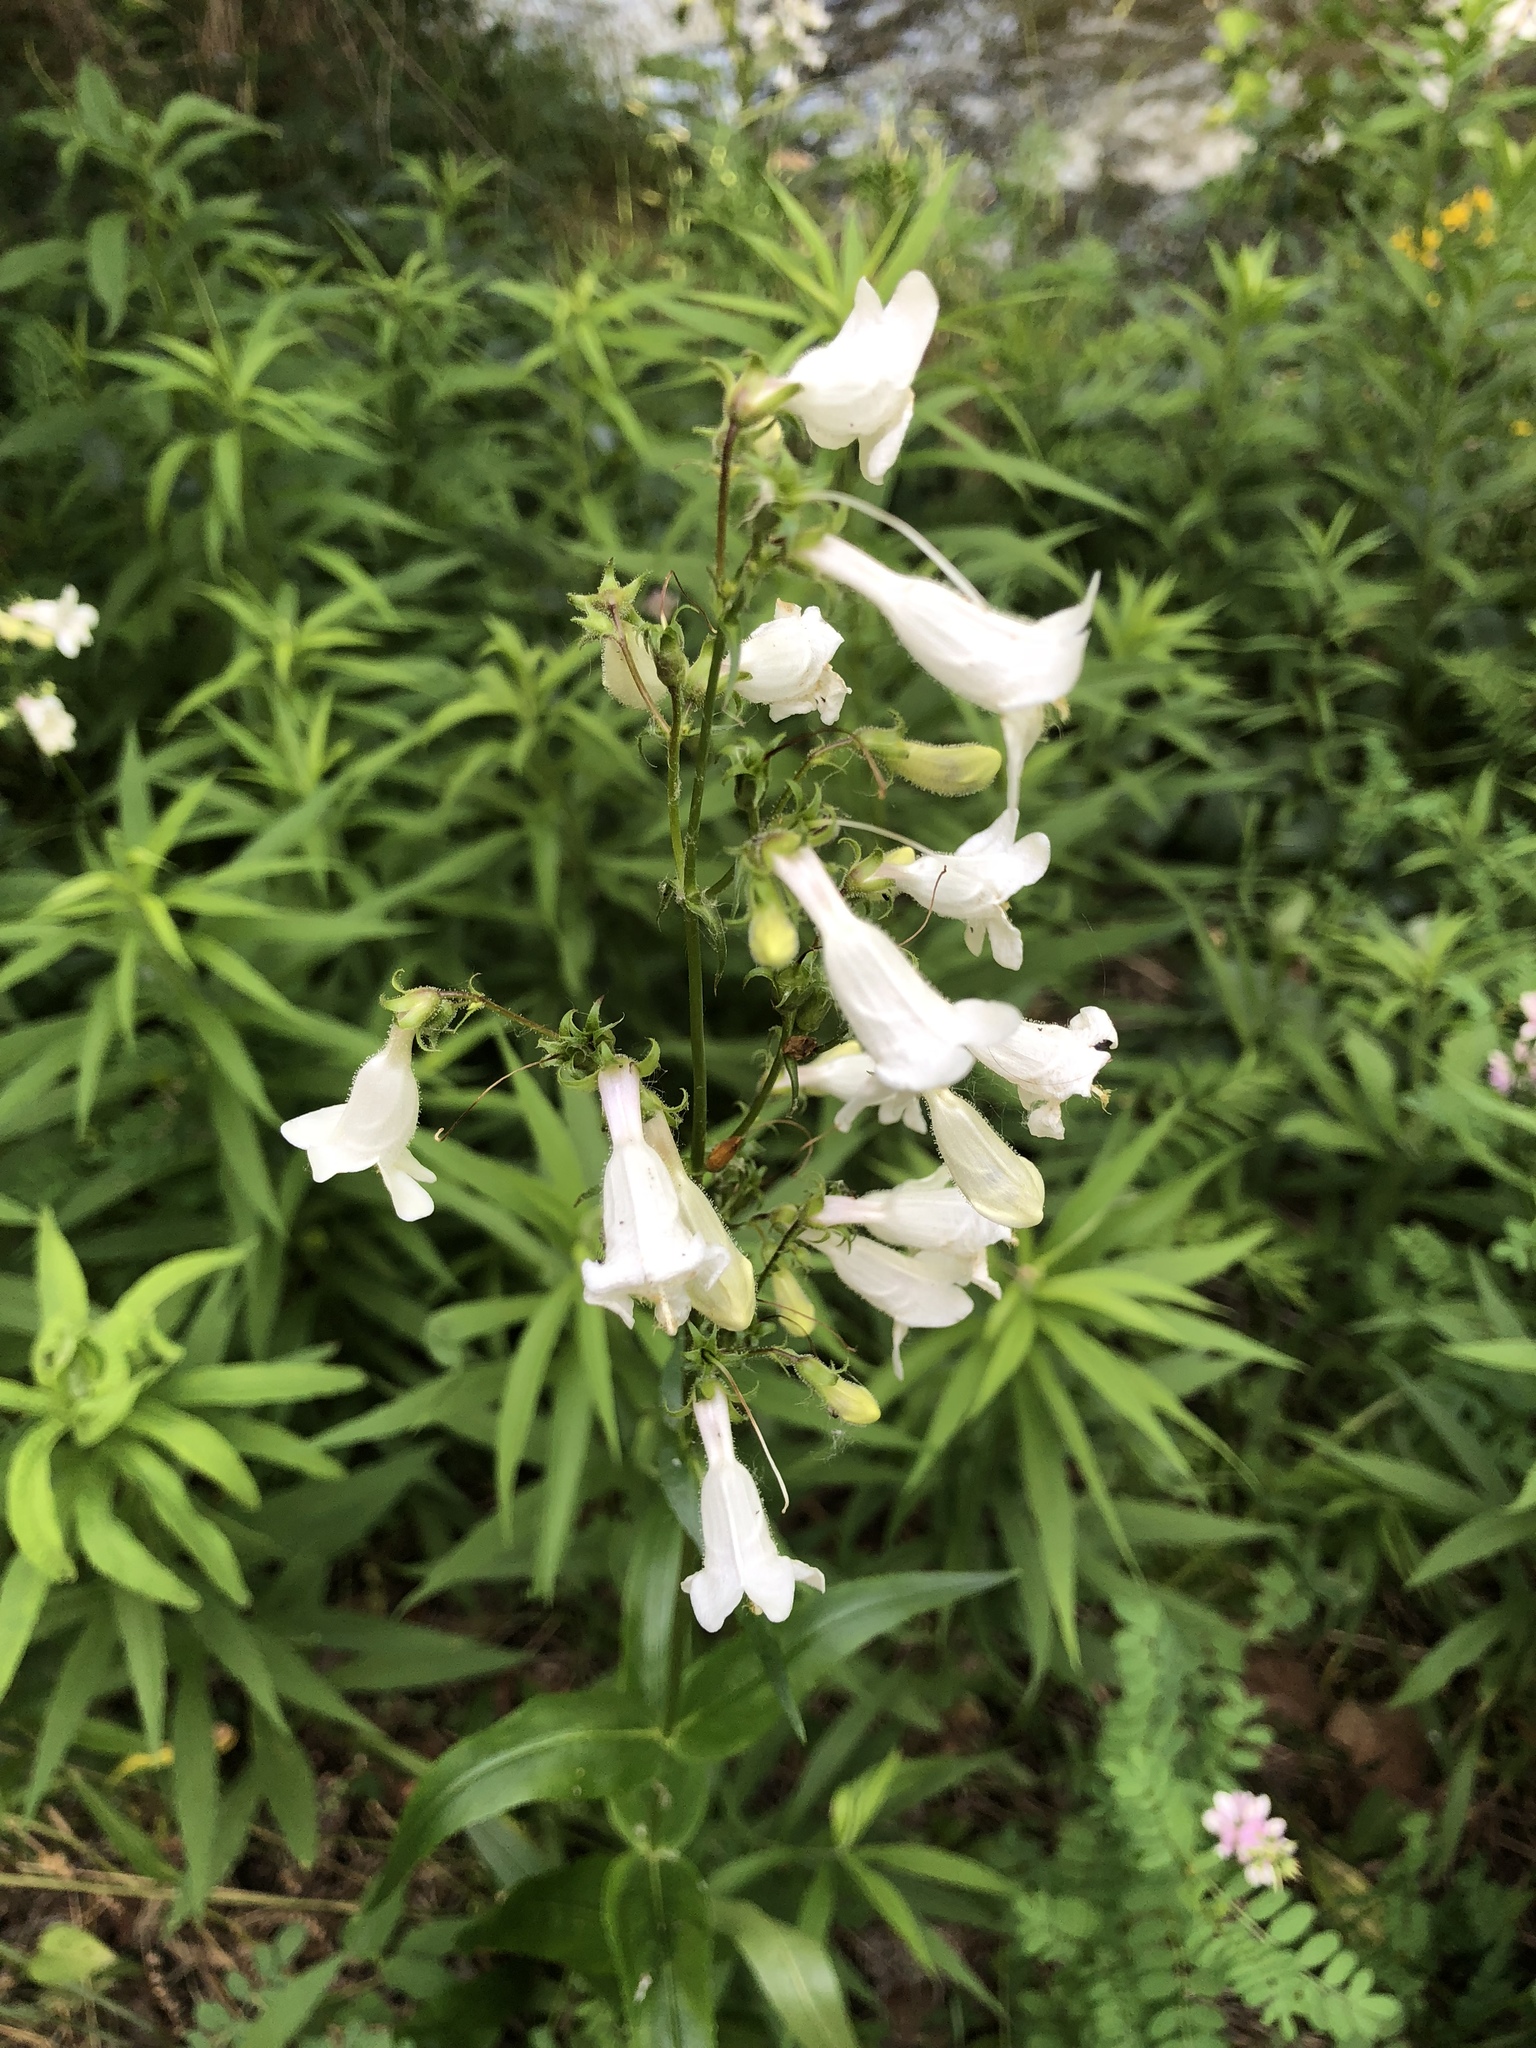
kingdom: Plantae
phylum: Tracheophyta
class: Magnoliopsida
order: Lamiales
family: Plantaginaceae
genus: Penstemon
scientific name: Penstemon digitalis
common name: Foxglove beardtongue
